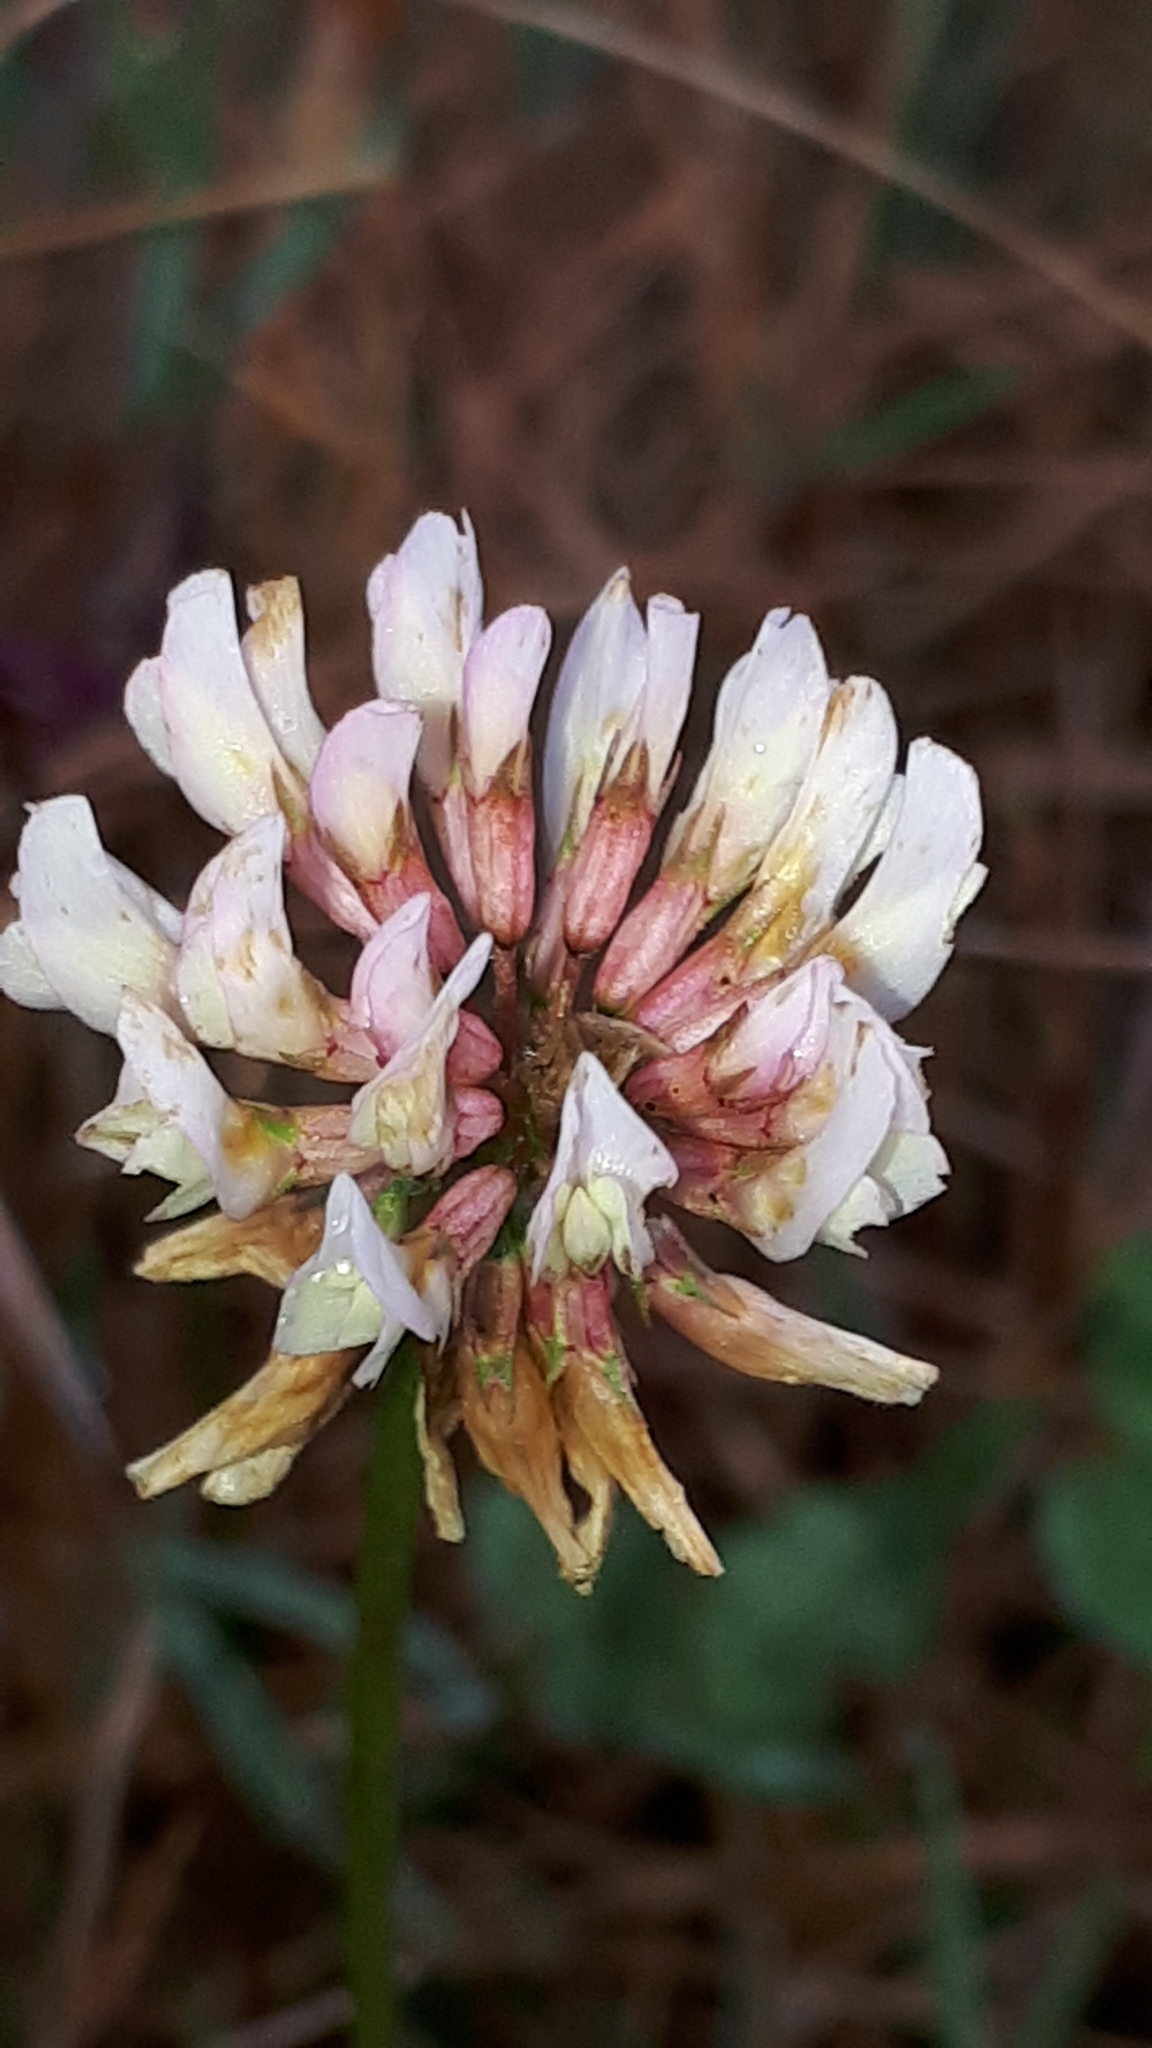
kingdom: Plantae
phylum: Tracheophyta
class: Magnoliopsida
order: Fabales
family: Fabaceae
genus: Trifolium
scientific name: Trifolium repens
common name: White clover
